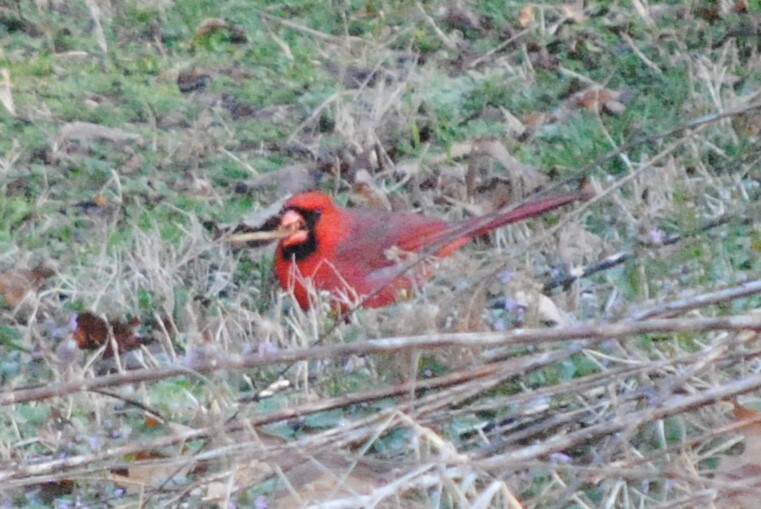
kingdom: Animalia
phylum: Chordata
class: Aves
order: Passeriformes
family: Cardinalidae
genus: Cardinalis
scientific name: Cardinalis cardinalis
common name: Northern cardinal
